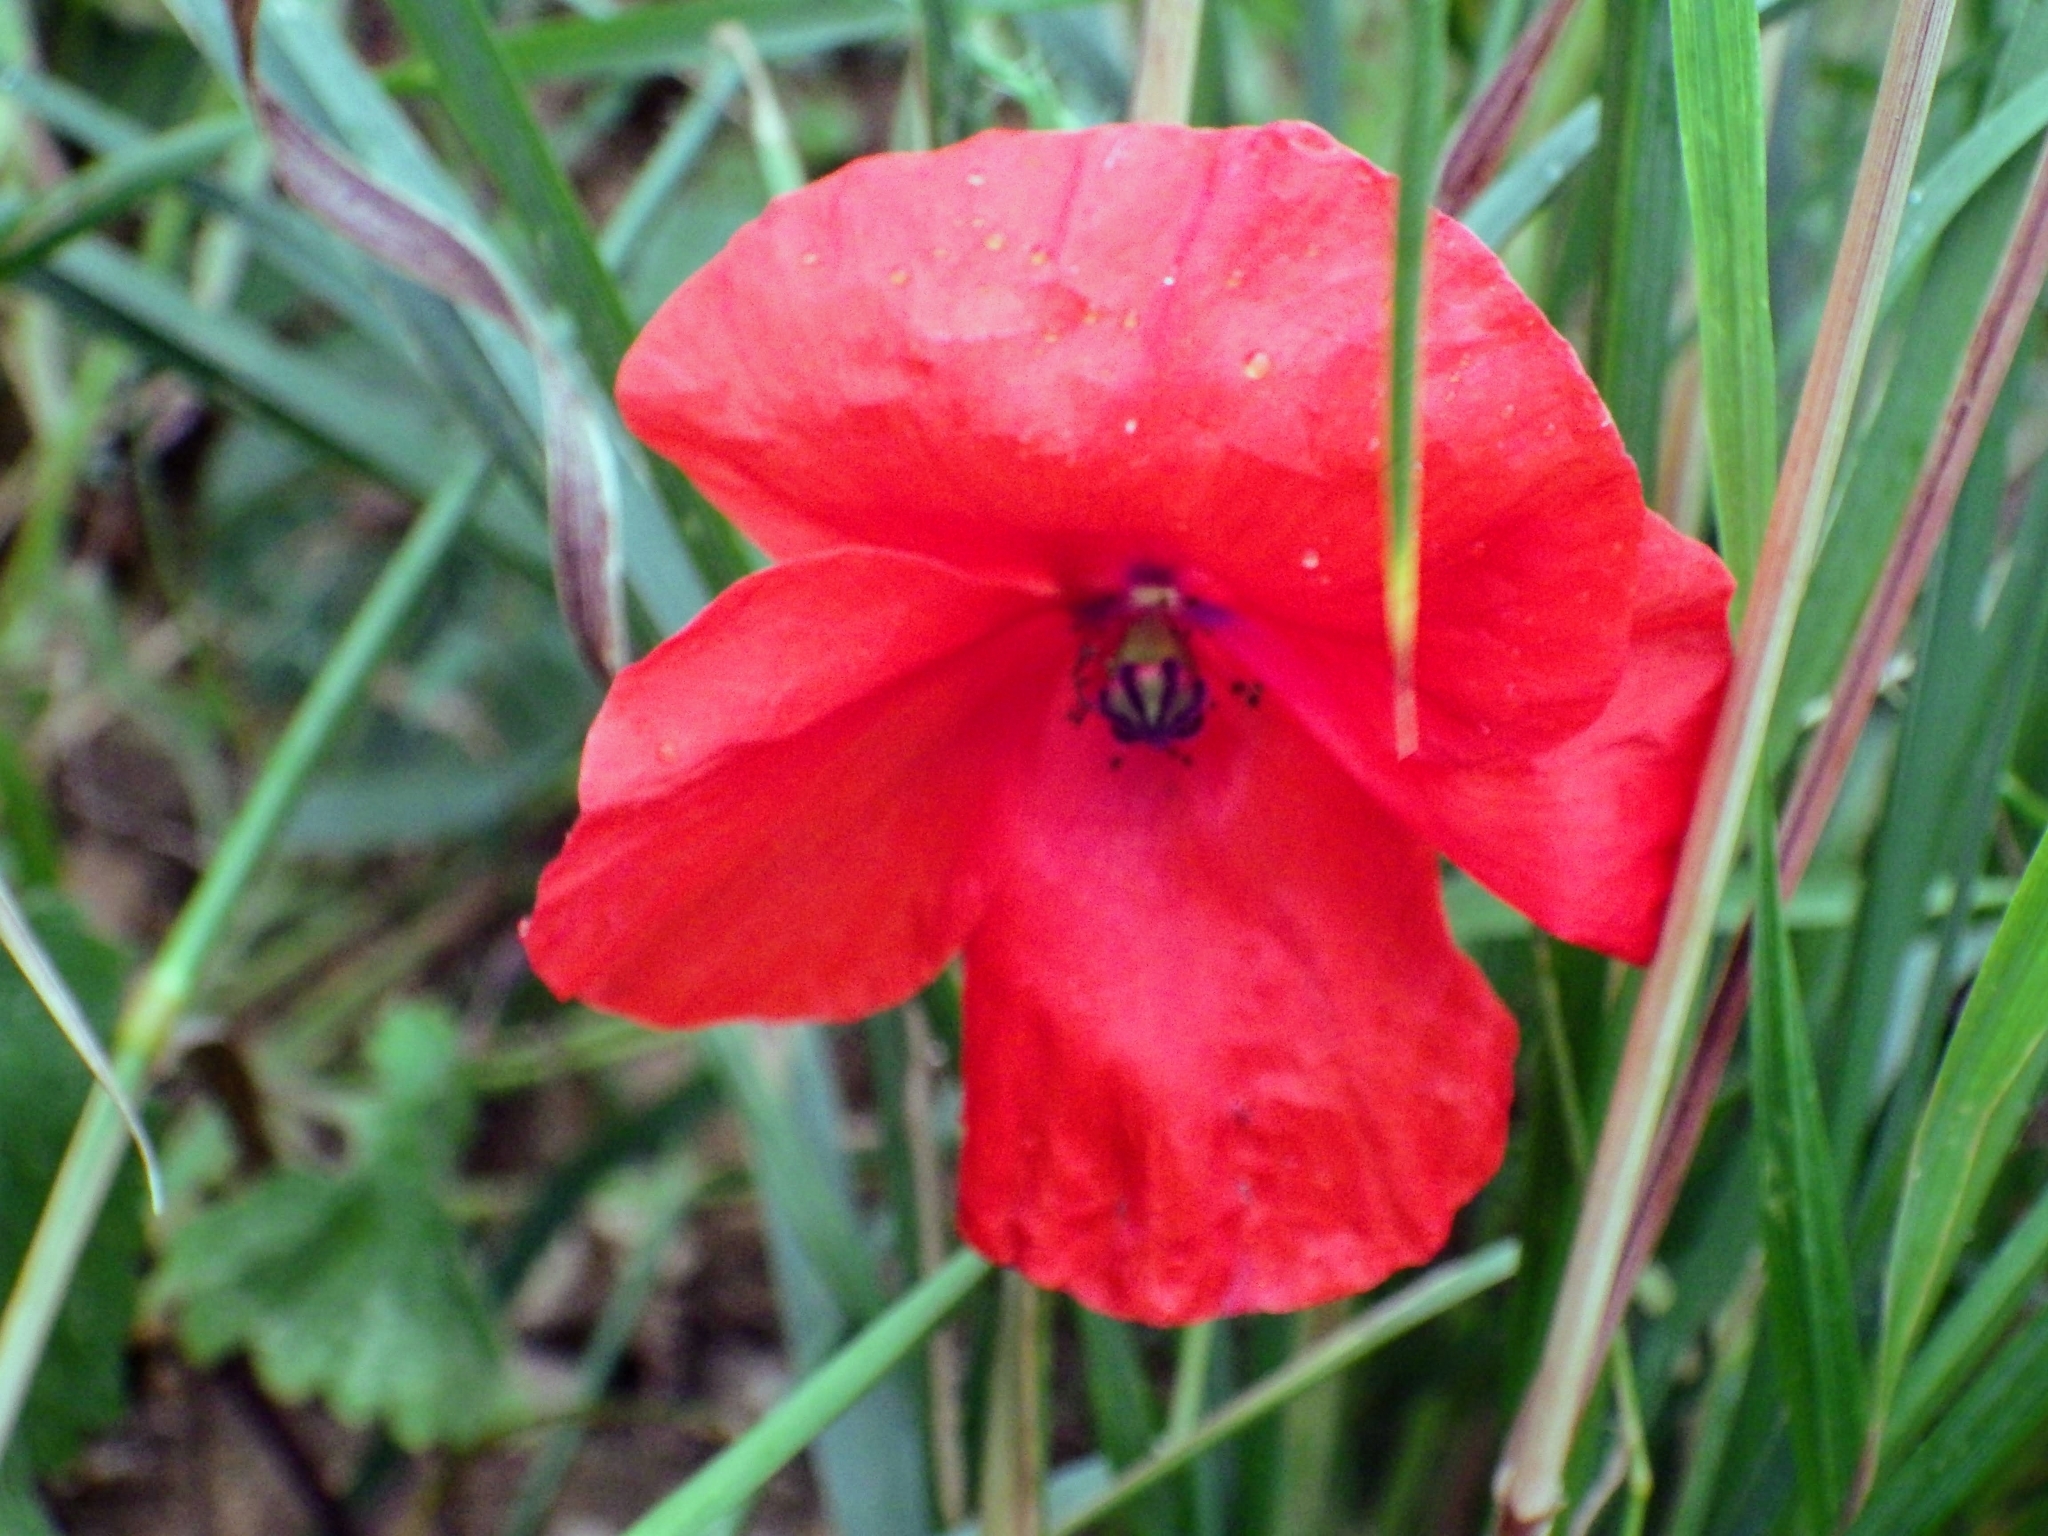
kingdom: Plantae
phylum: Tracheophyta
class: Magnoliopsida
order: Ranunculales
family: Papaveraceae
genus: Papaver
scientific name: Papaver rhoeas
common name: Corn poppy
